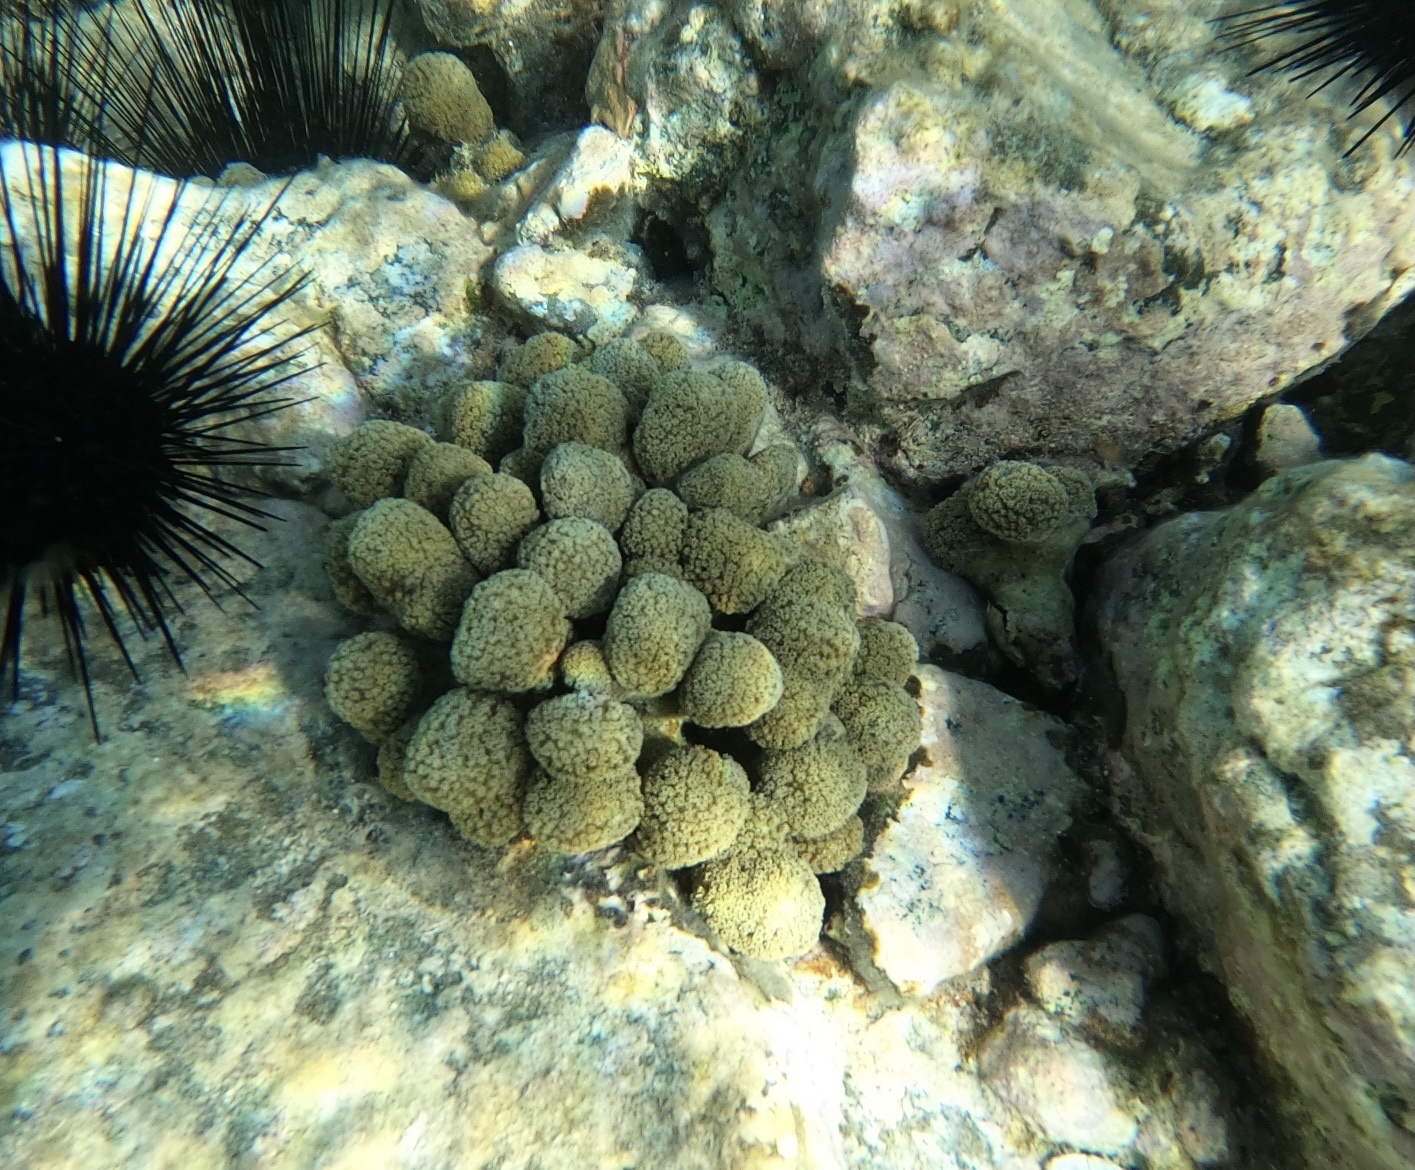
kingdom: Animalia
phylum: Cnidaria
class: Anthozoa
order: Scleractinia
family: Pocilloporidae
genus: Madracis
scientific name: Madracis decactis
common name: Ten-ray star coral
